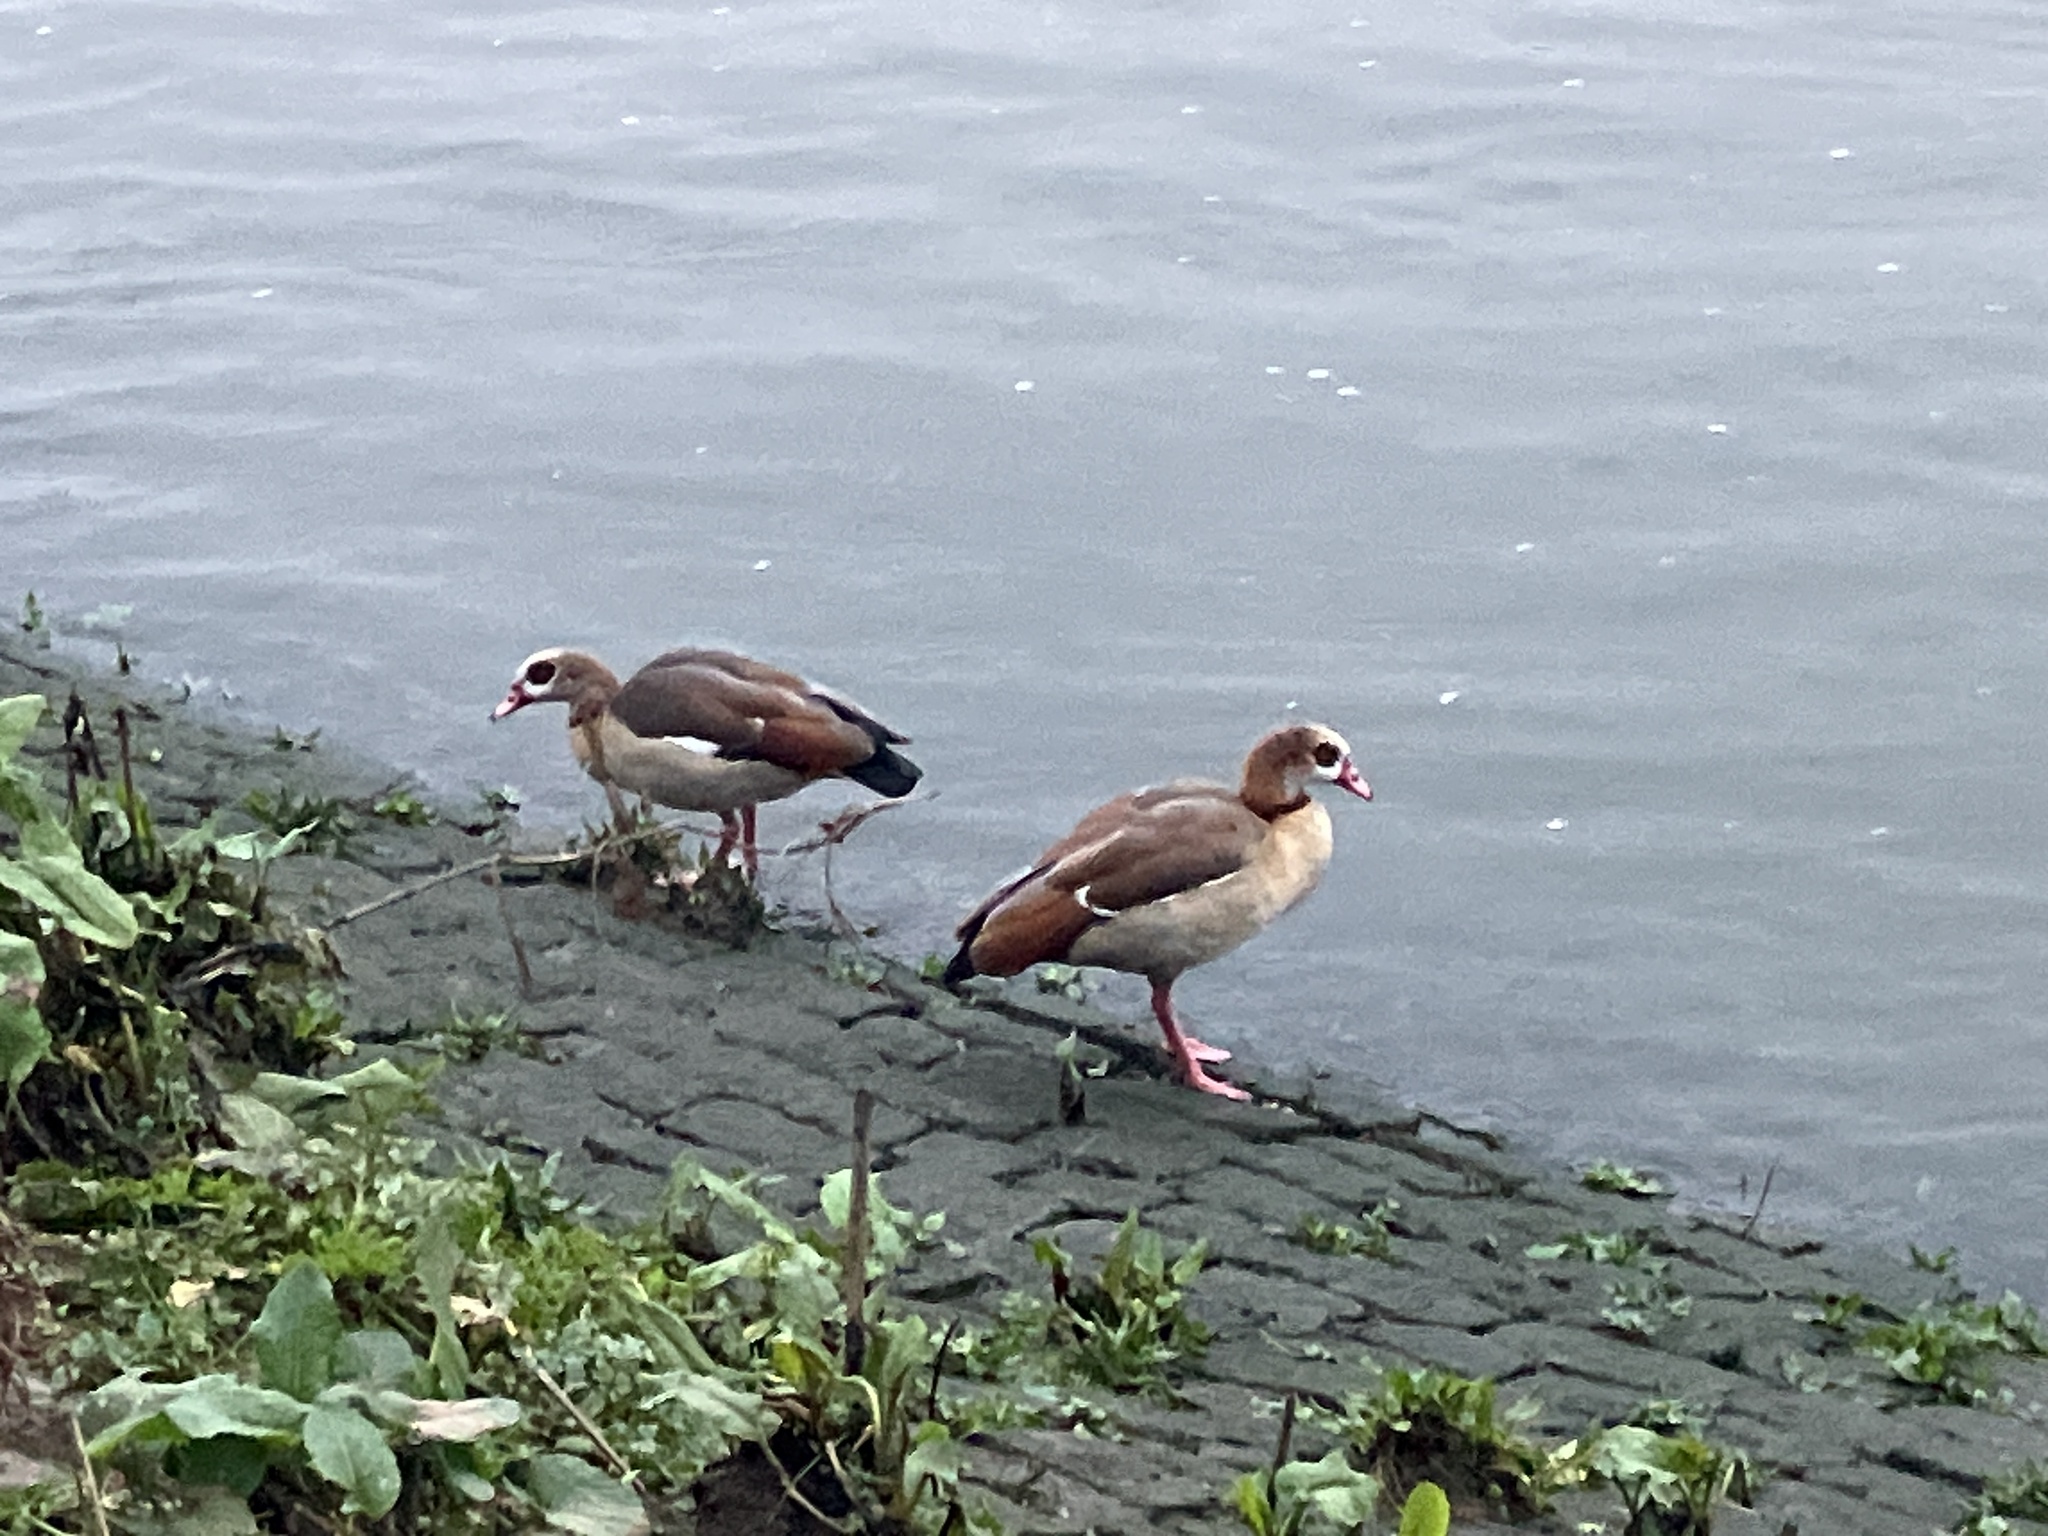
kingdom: Animalia
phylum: Chordata
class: Aves
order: Anseriformes
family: Anatidae
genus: Alopochen
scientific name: Alopochen aegyptiaca
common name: Egyptian goose
